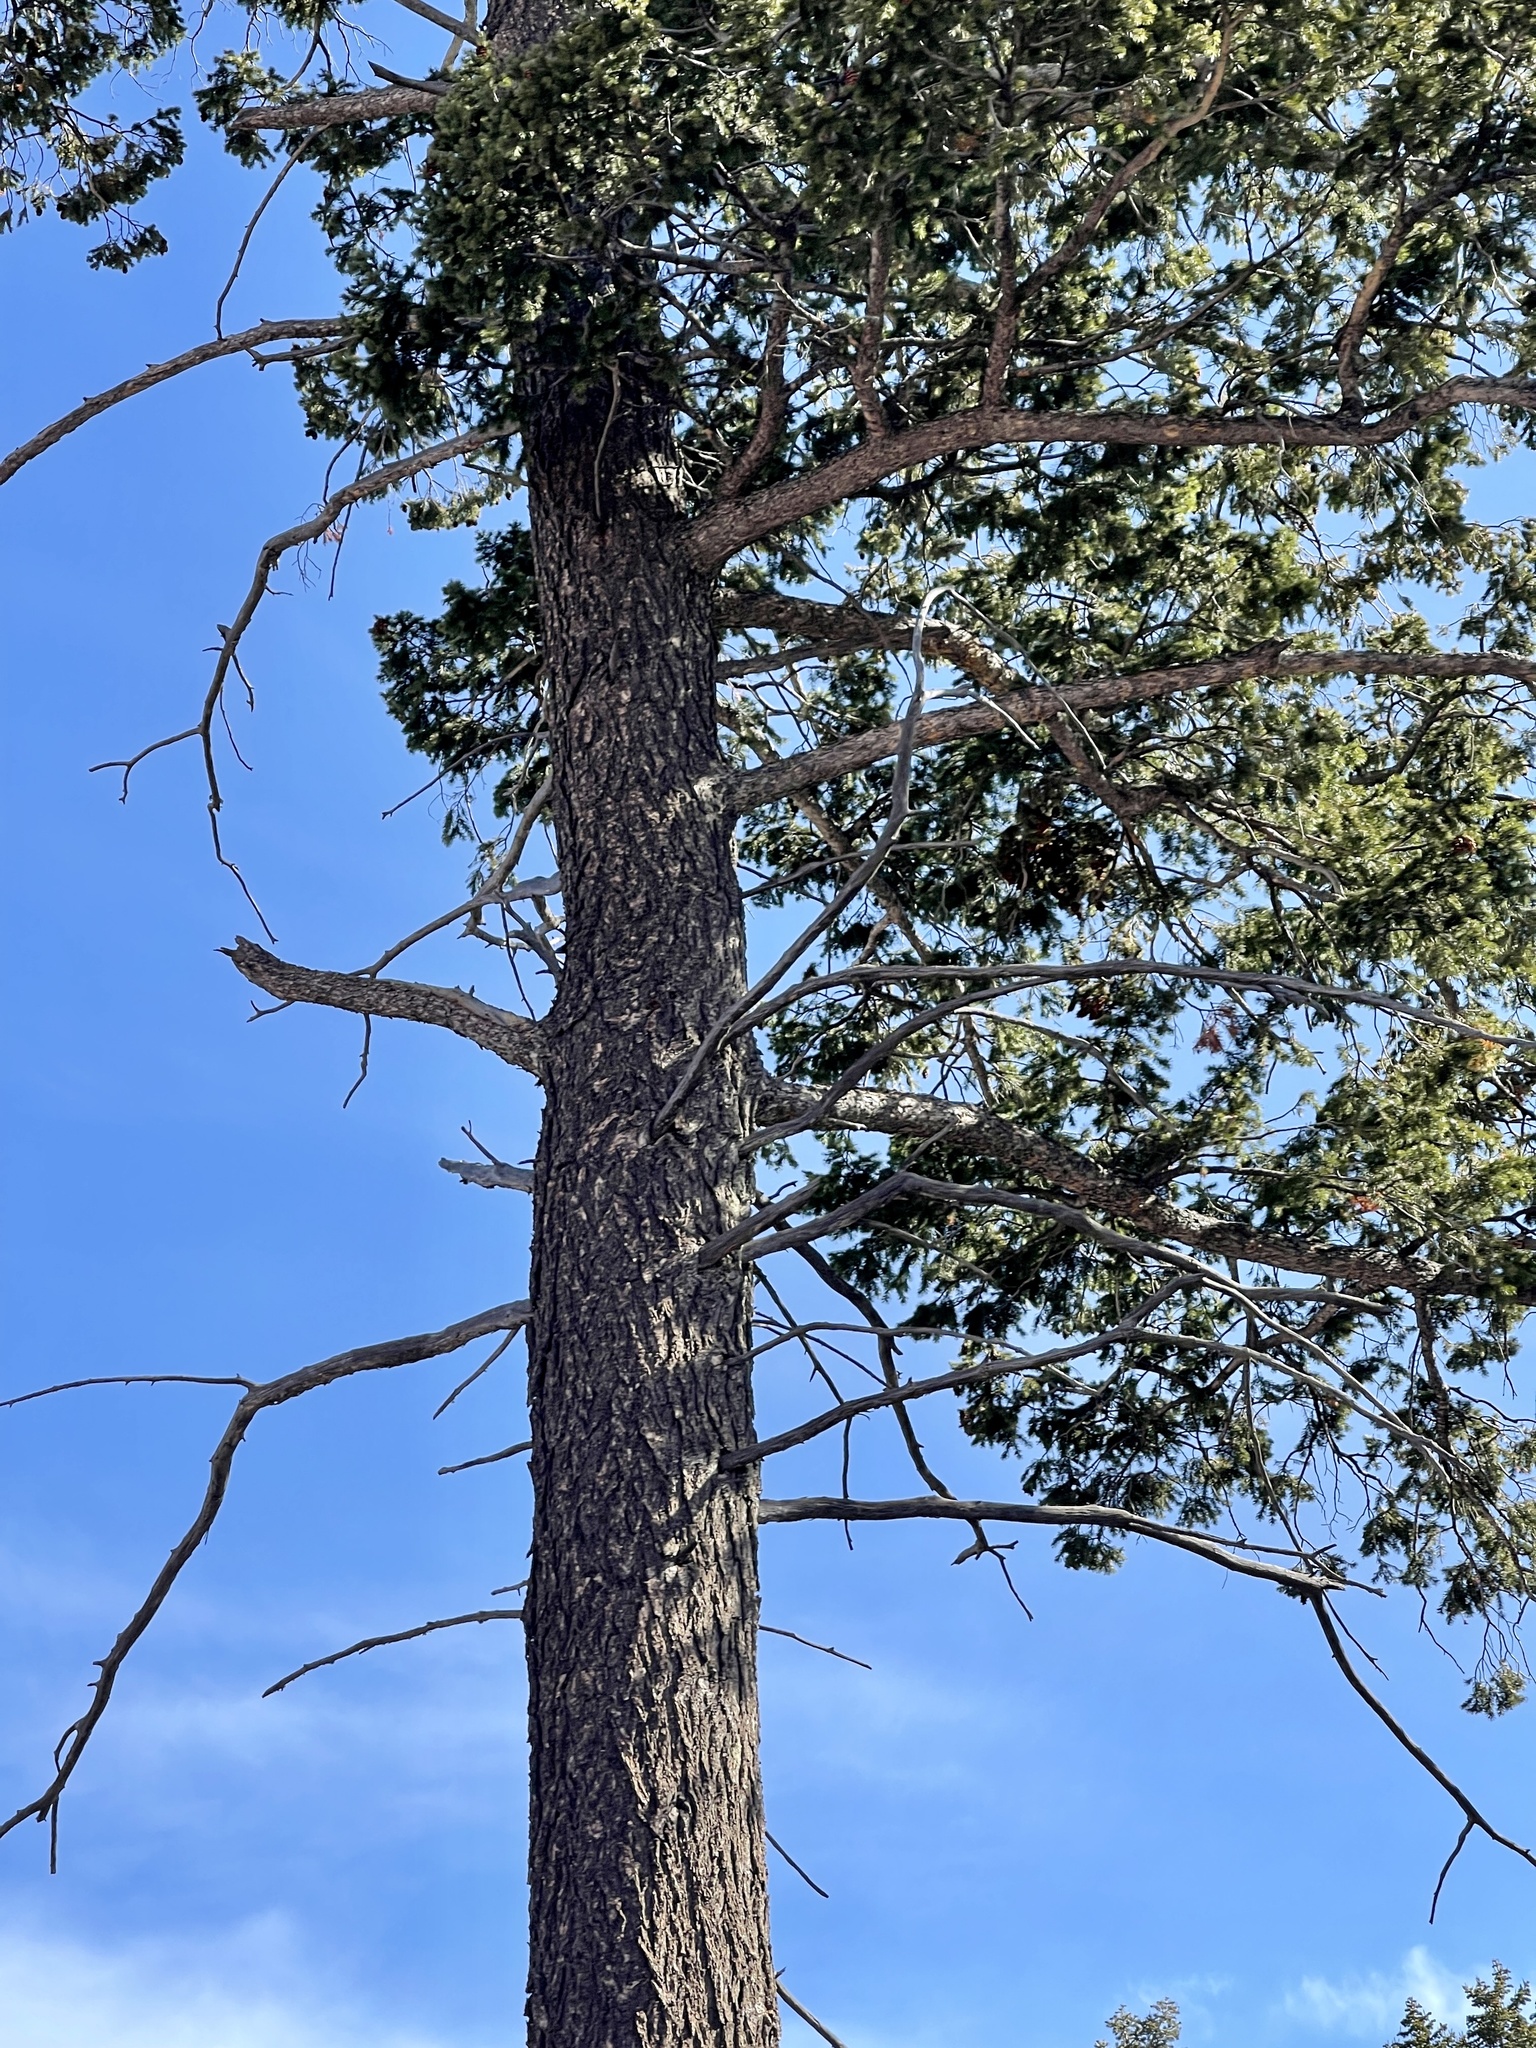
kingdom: Plantae
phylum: Tracheophyta
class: Pinopsida
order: Pinales
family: Pinaceae
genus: Pseudotsuga
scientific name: Pseudotsuga menziesii
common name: Douglas fir
